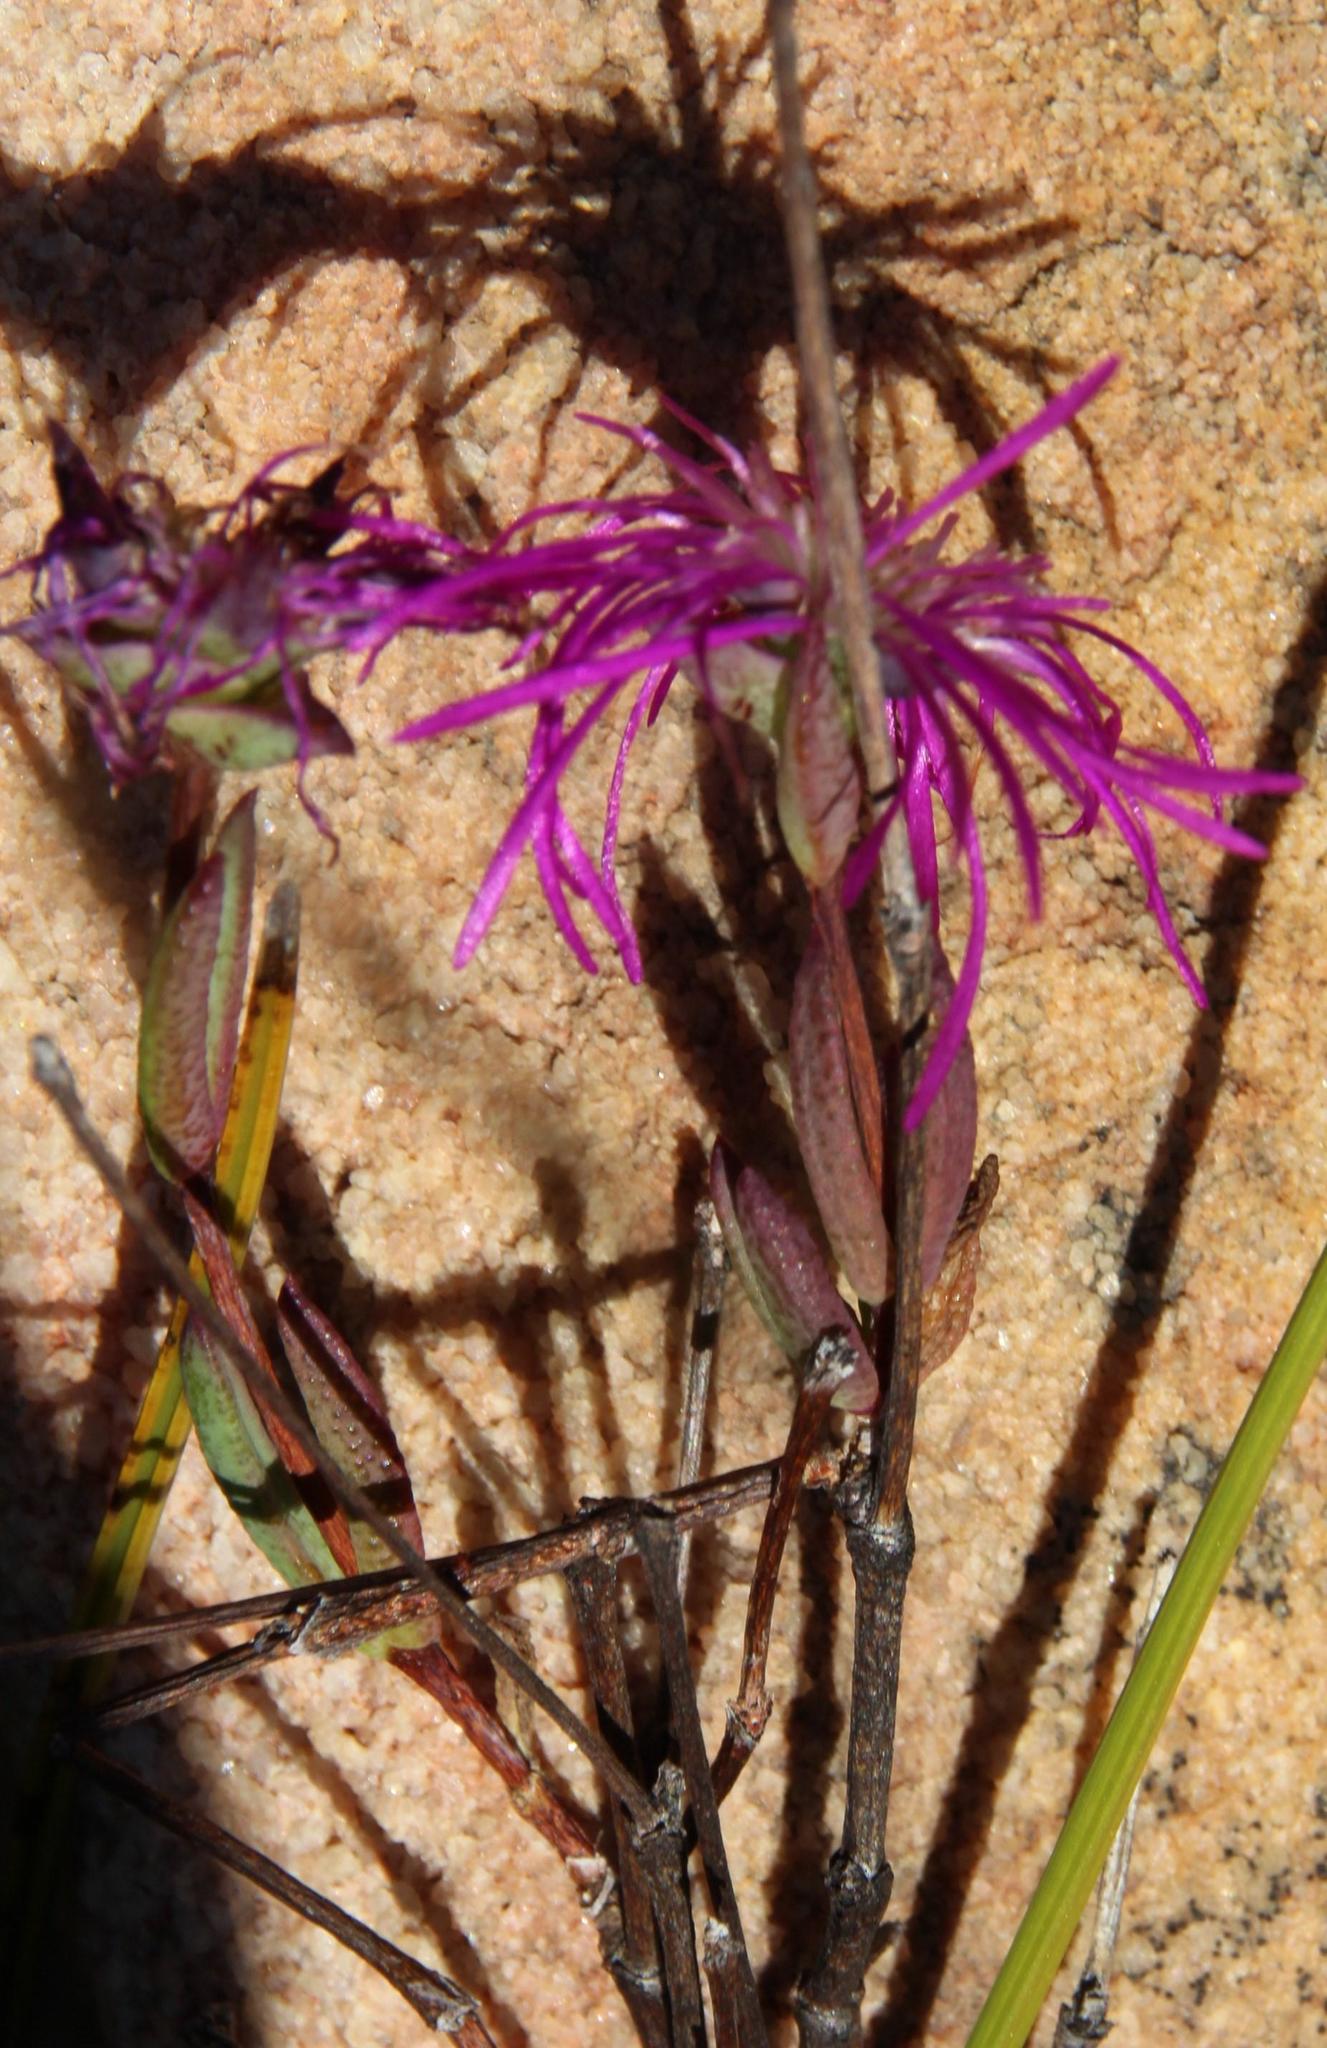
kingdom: Plantae
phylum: Tracheophyta
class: Magnoliopsida
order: Caryophyllales
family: Aizoaceae
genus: Erepsia
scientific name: Erepsia gracilis
